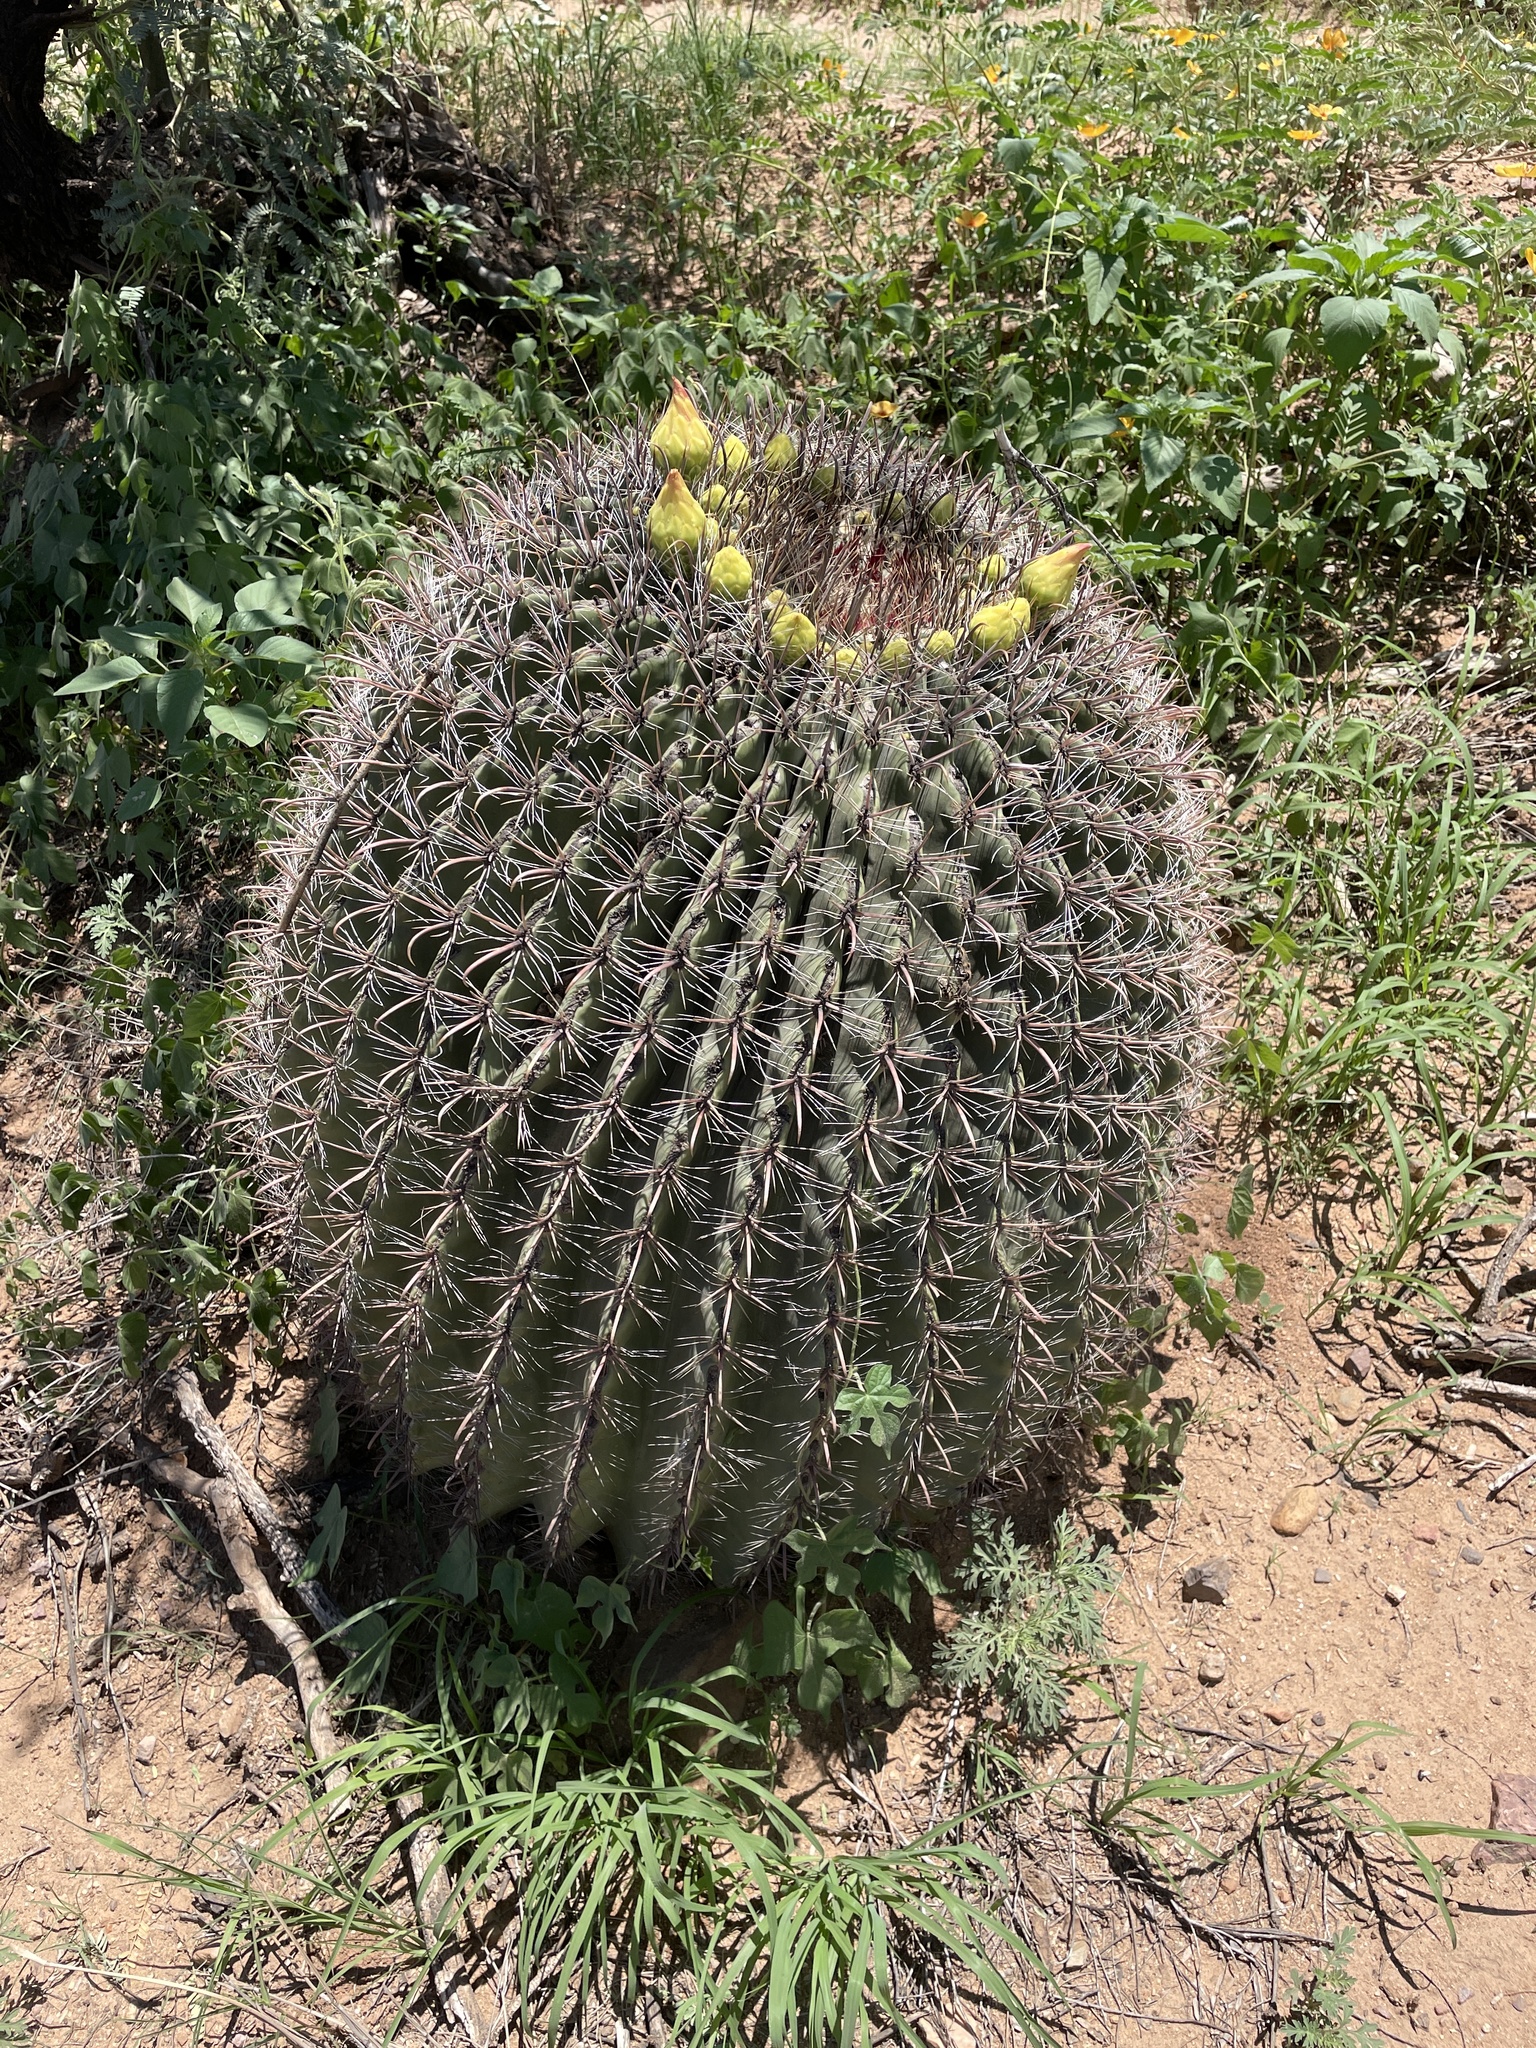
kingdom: Plantae
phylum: Tracheophyta
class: Magnoliopsida
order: Caryophyllales
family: Cactaceae
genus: Ferocactus
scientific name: Ferocactus wislizeni
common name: Candy barrel cactus
